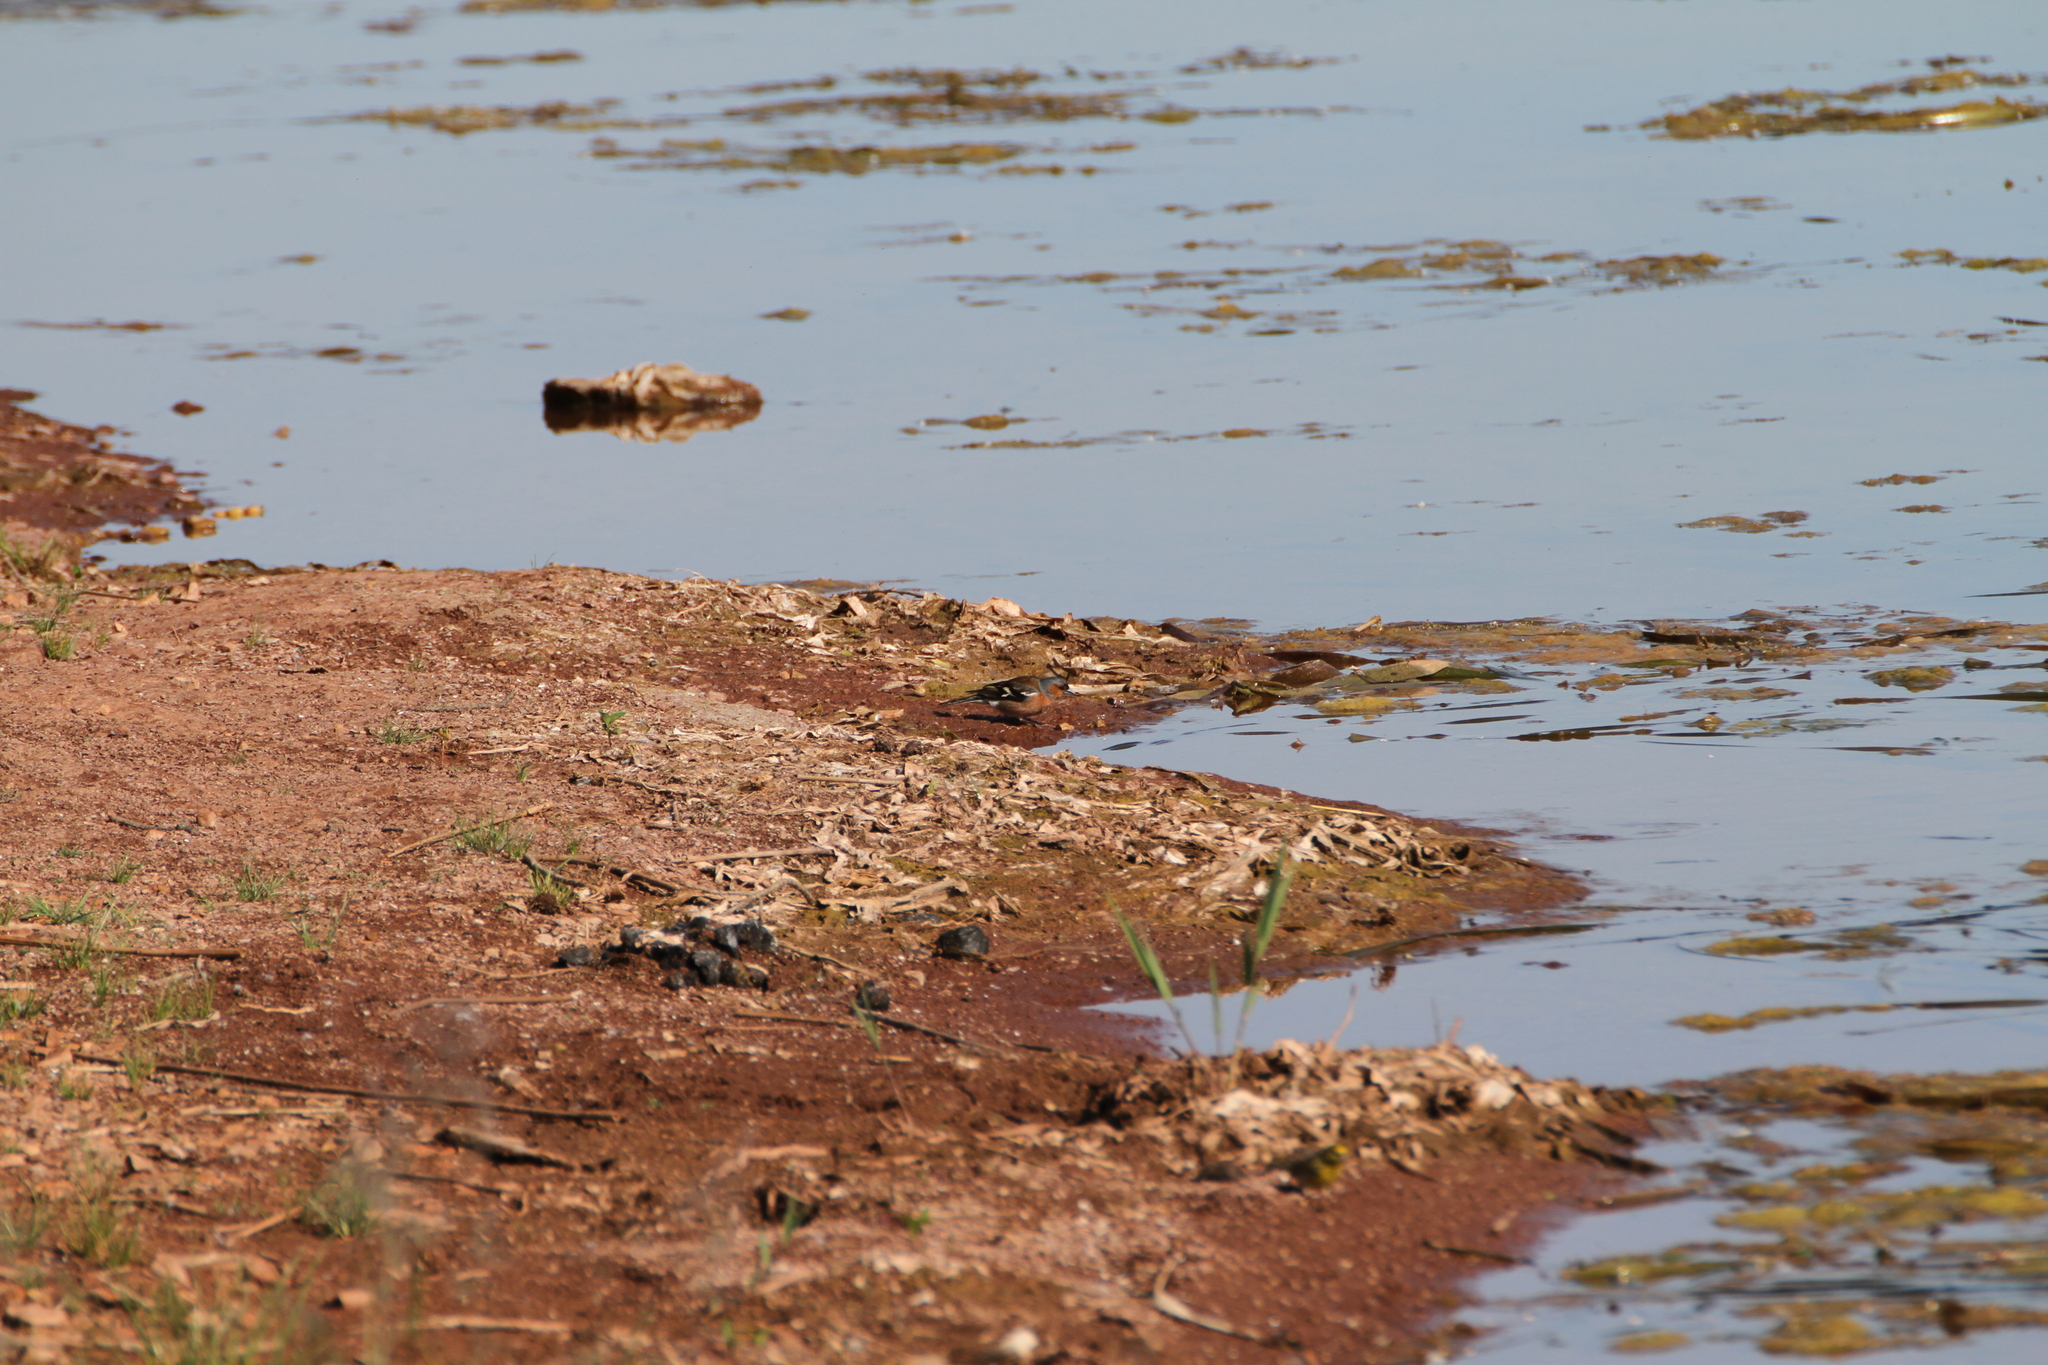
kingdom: Animalia
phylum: Chordata
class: Aves
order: Passeriformes
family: Fringillidae
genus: Fringilla
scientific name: Fringilla coelebs
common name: Common chaffinch
